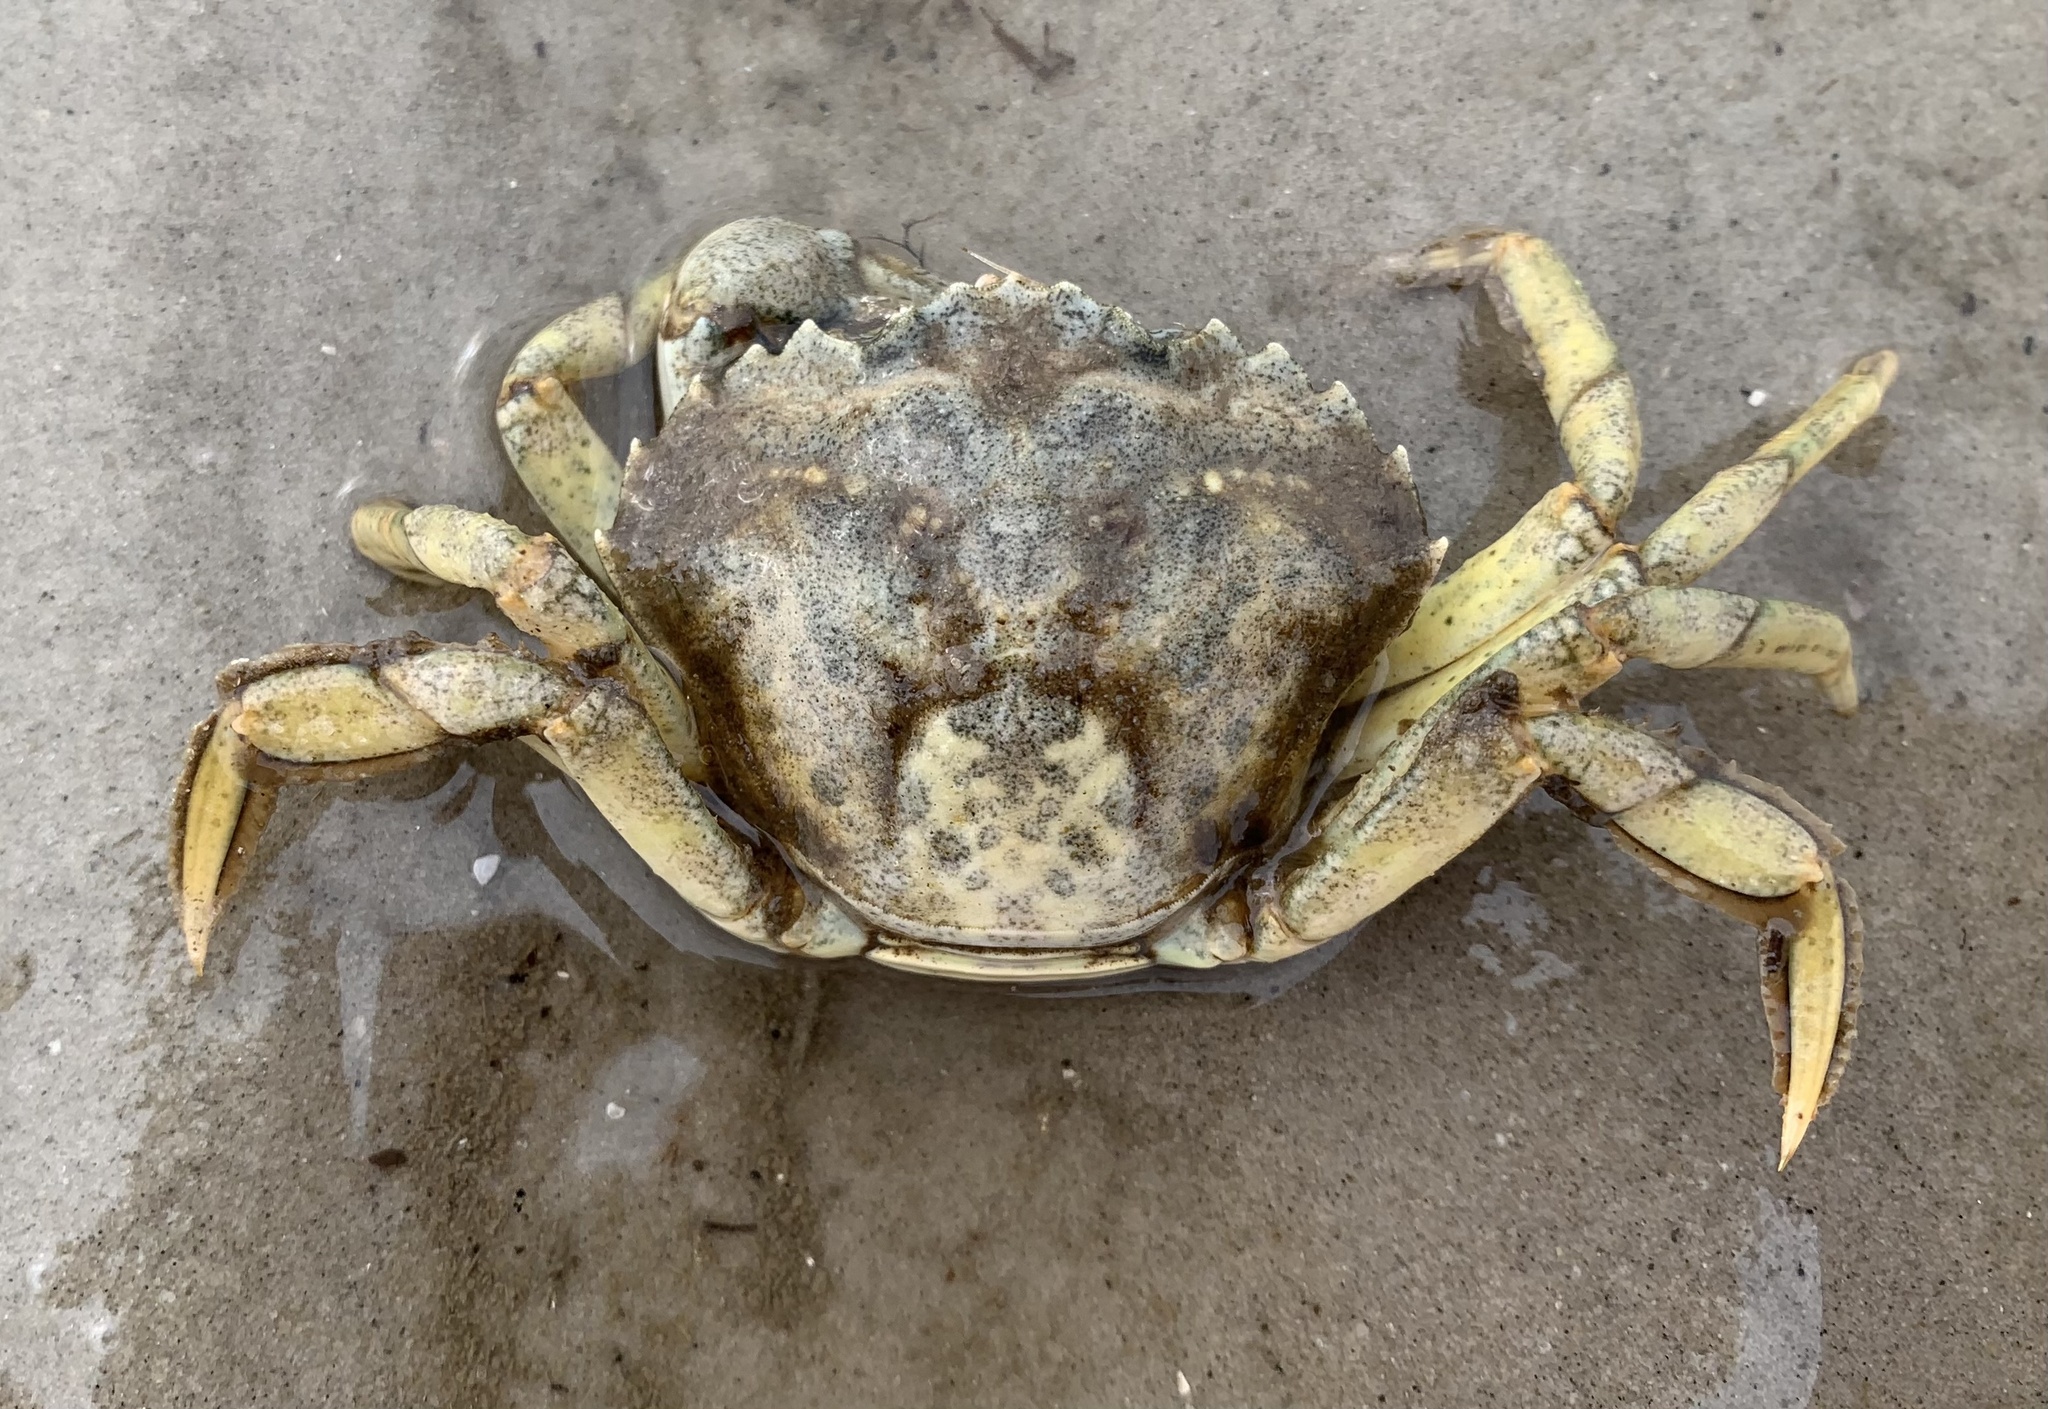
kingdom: Animalia
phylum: Arthropoda
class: Malacostraca
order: Decapoda
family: Carcinidae
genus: Carcinus
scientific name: Carcinus maenas
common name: European green crab
